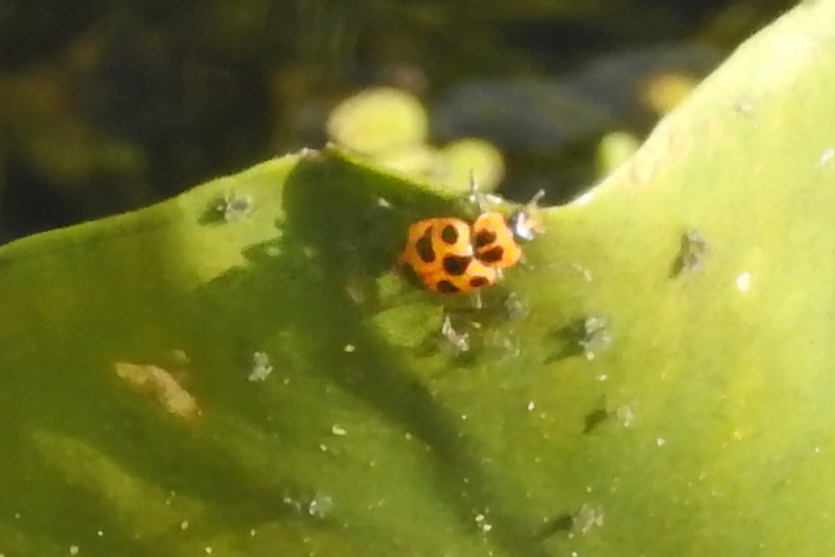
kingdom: Animalia
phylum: Arthropoda
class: Insecta
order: Coleoptera
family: Coccinellidae
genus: Coleomegilla
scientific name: Coleomegilla maculata
